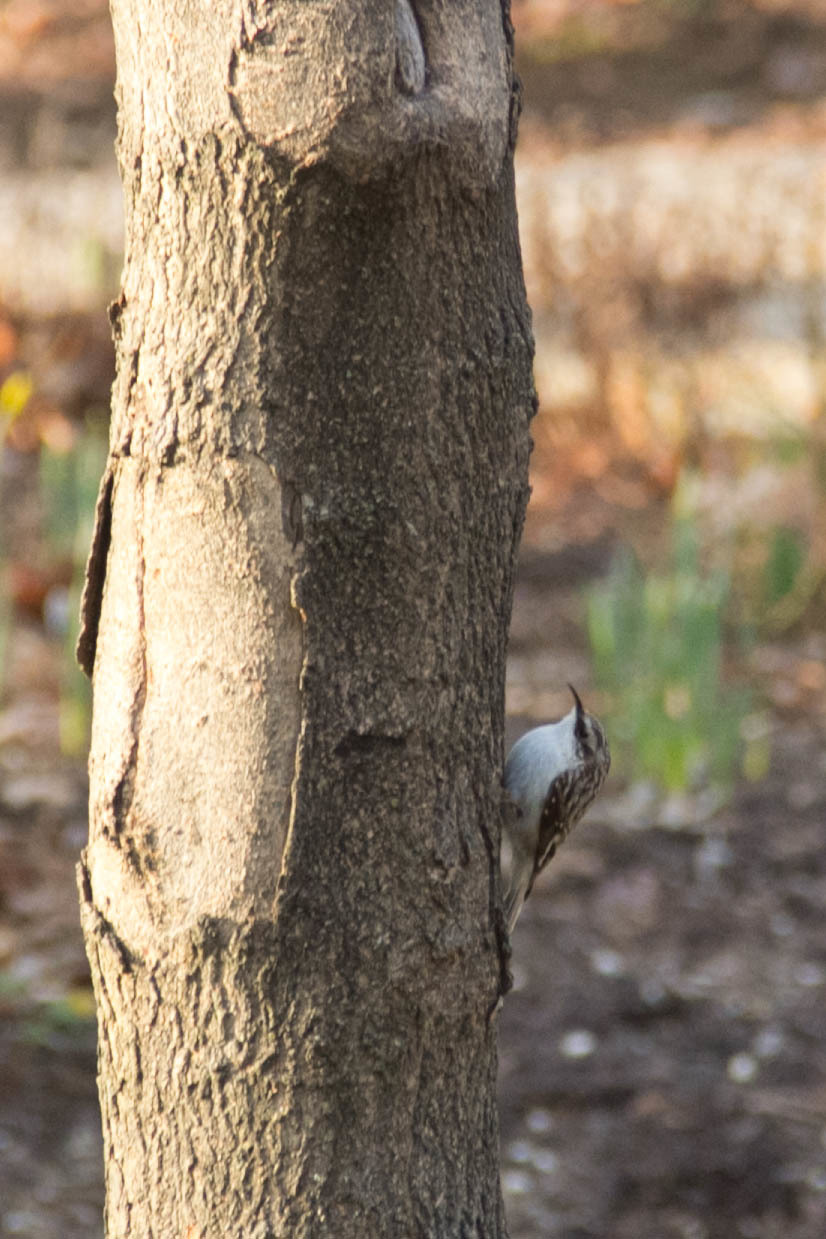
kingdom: Animalia
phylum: Chordata
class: Aves
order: Passeriformes
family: Certhiidae
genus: Certhia
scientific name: Certhia americana
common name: Brown creeper
